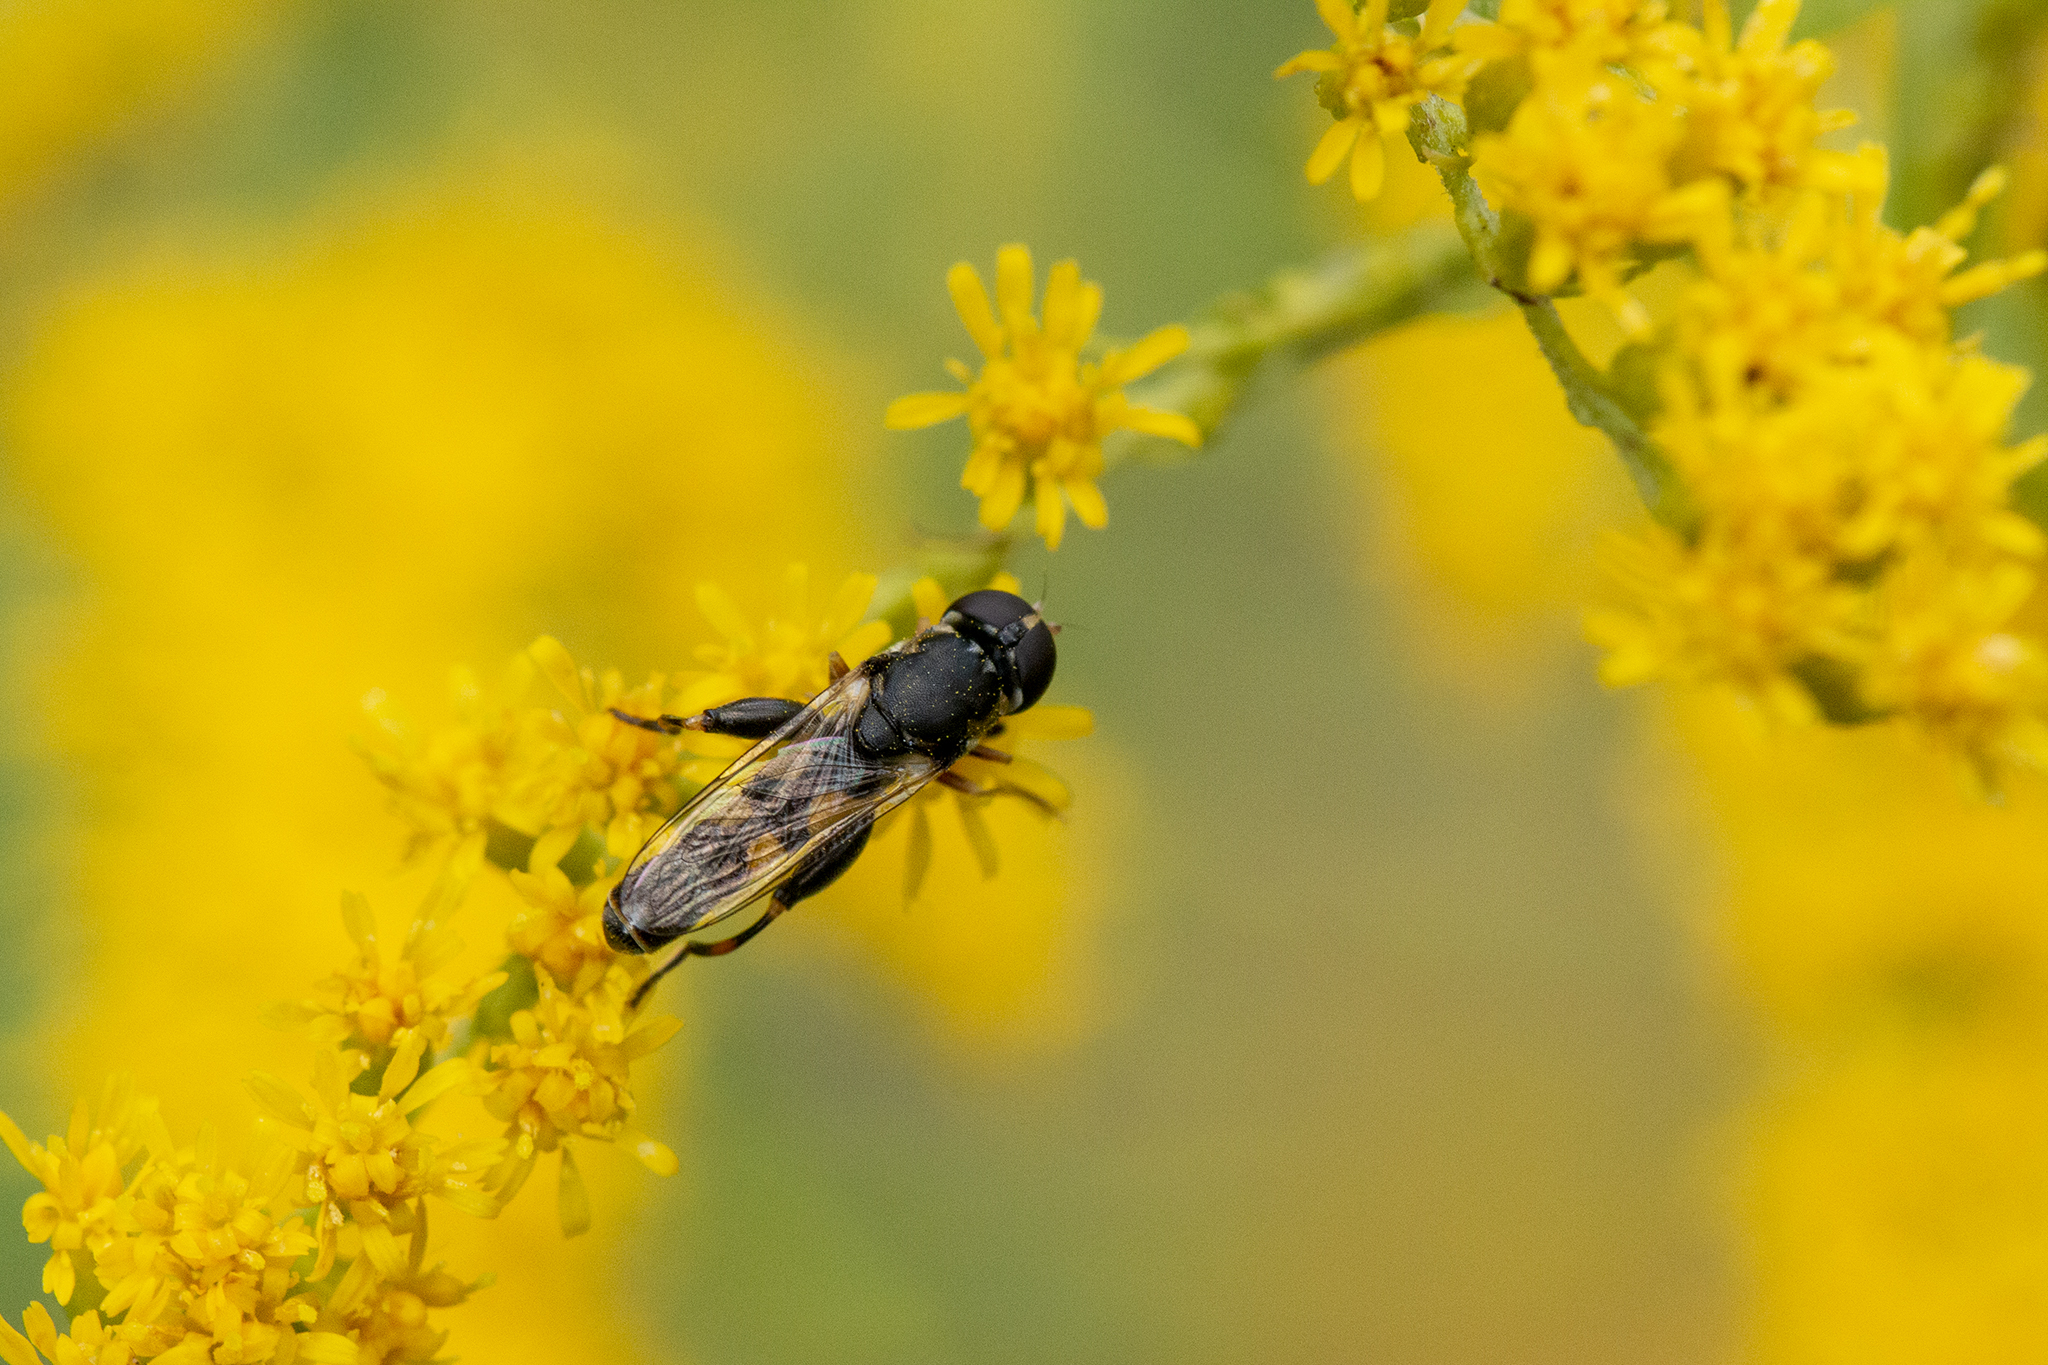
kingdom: Animalia
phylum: Arthropoda
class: Insecta
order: Diptera
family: Syrphidae
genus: Syritta
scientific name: Syritta pipiens
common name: Hover fly
